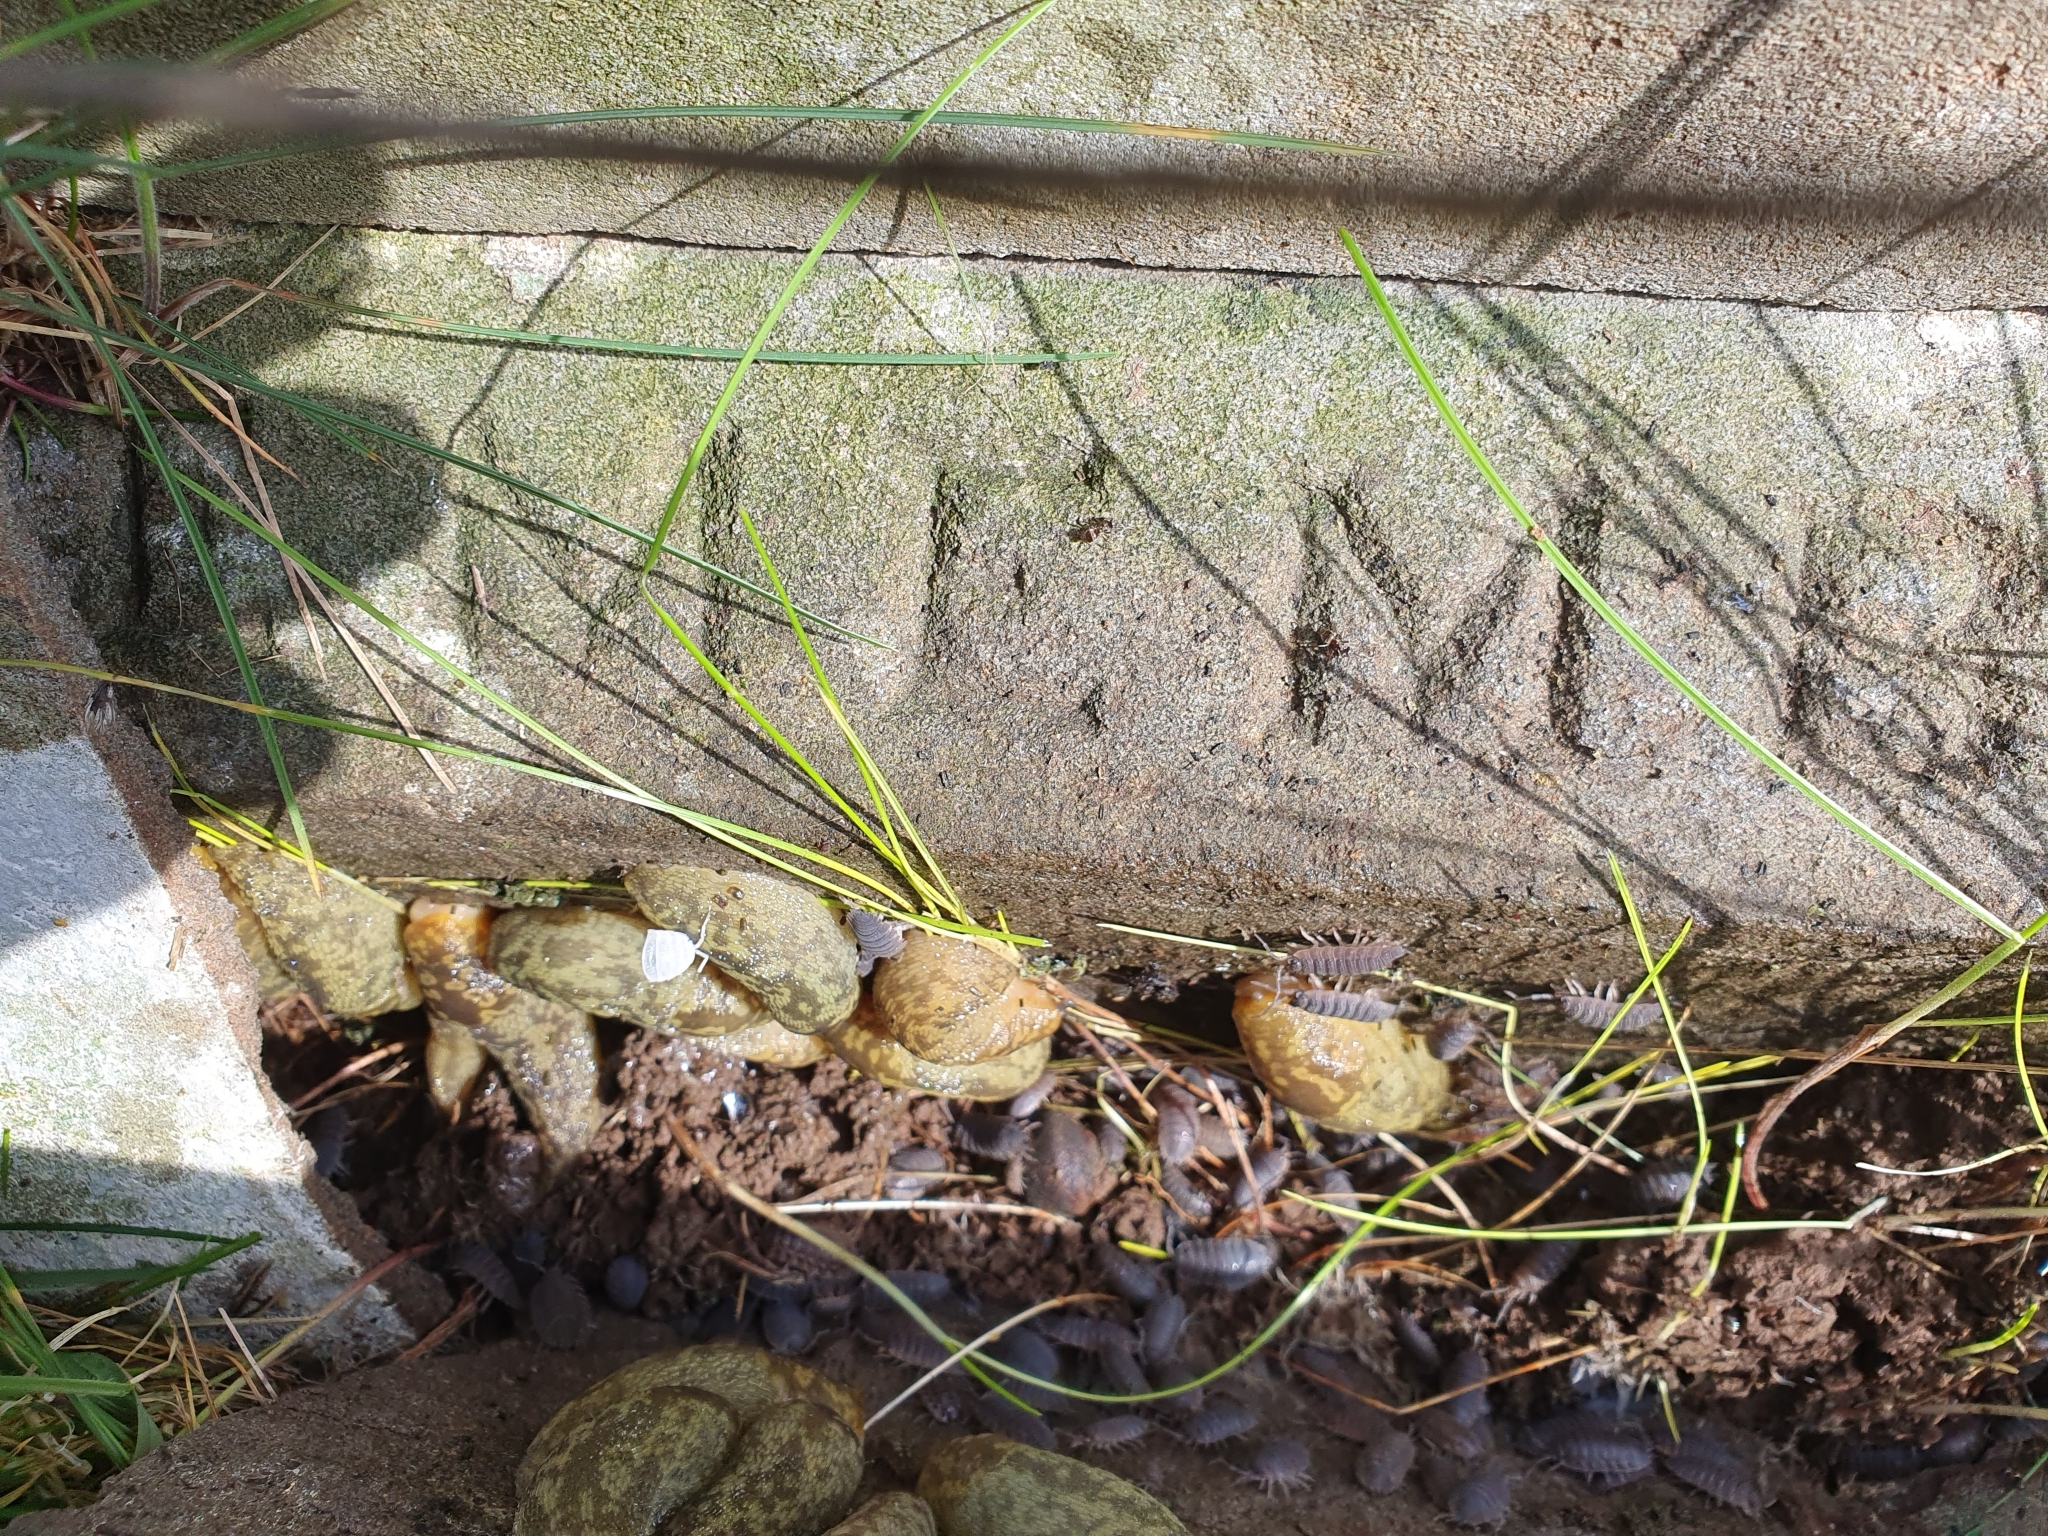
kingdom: Animalia
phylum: Mollusca
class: Gastropoda
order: Stylommatophora
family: Limacidae
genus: Limacus
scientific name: Limacus maculatus
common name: Irish yellow slug
